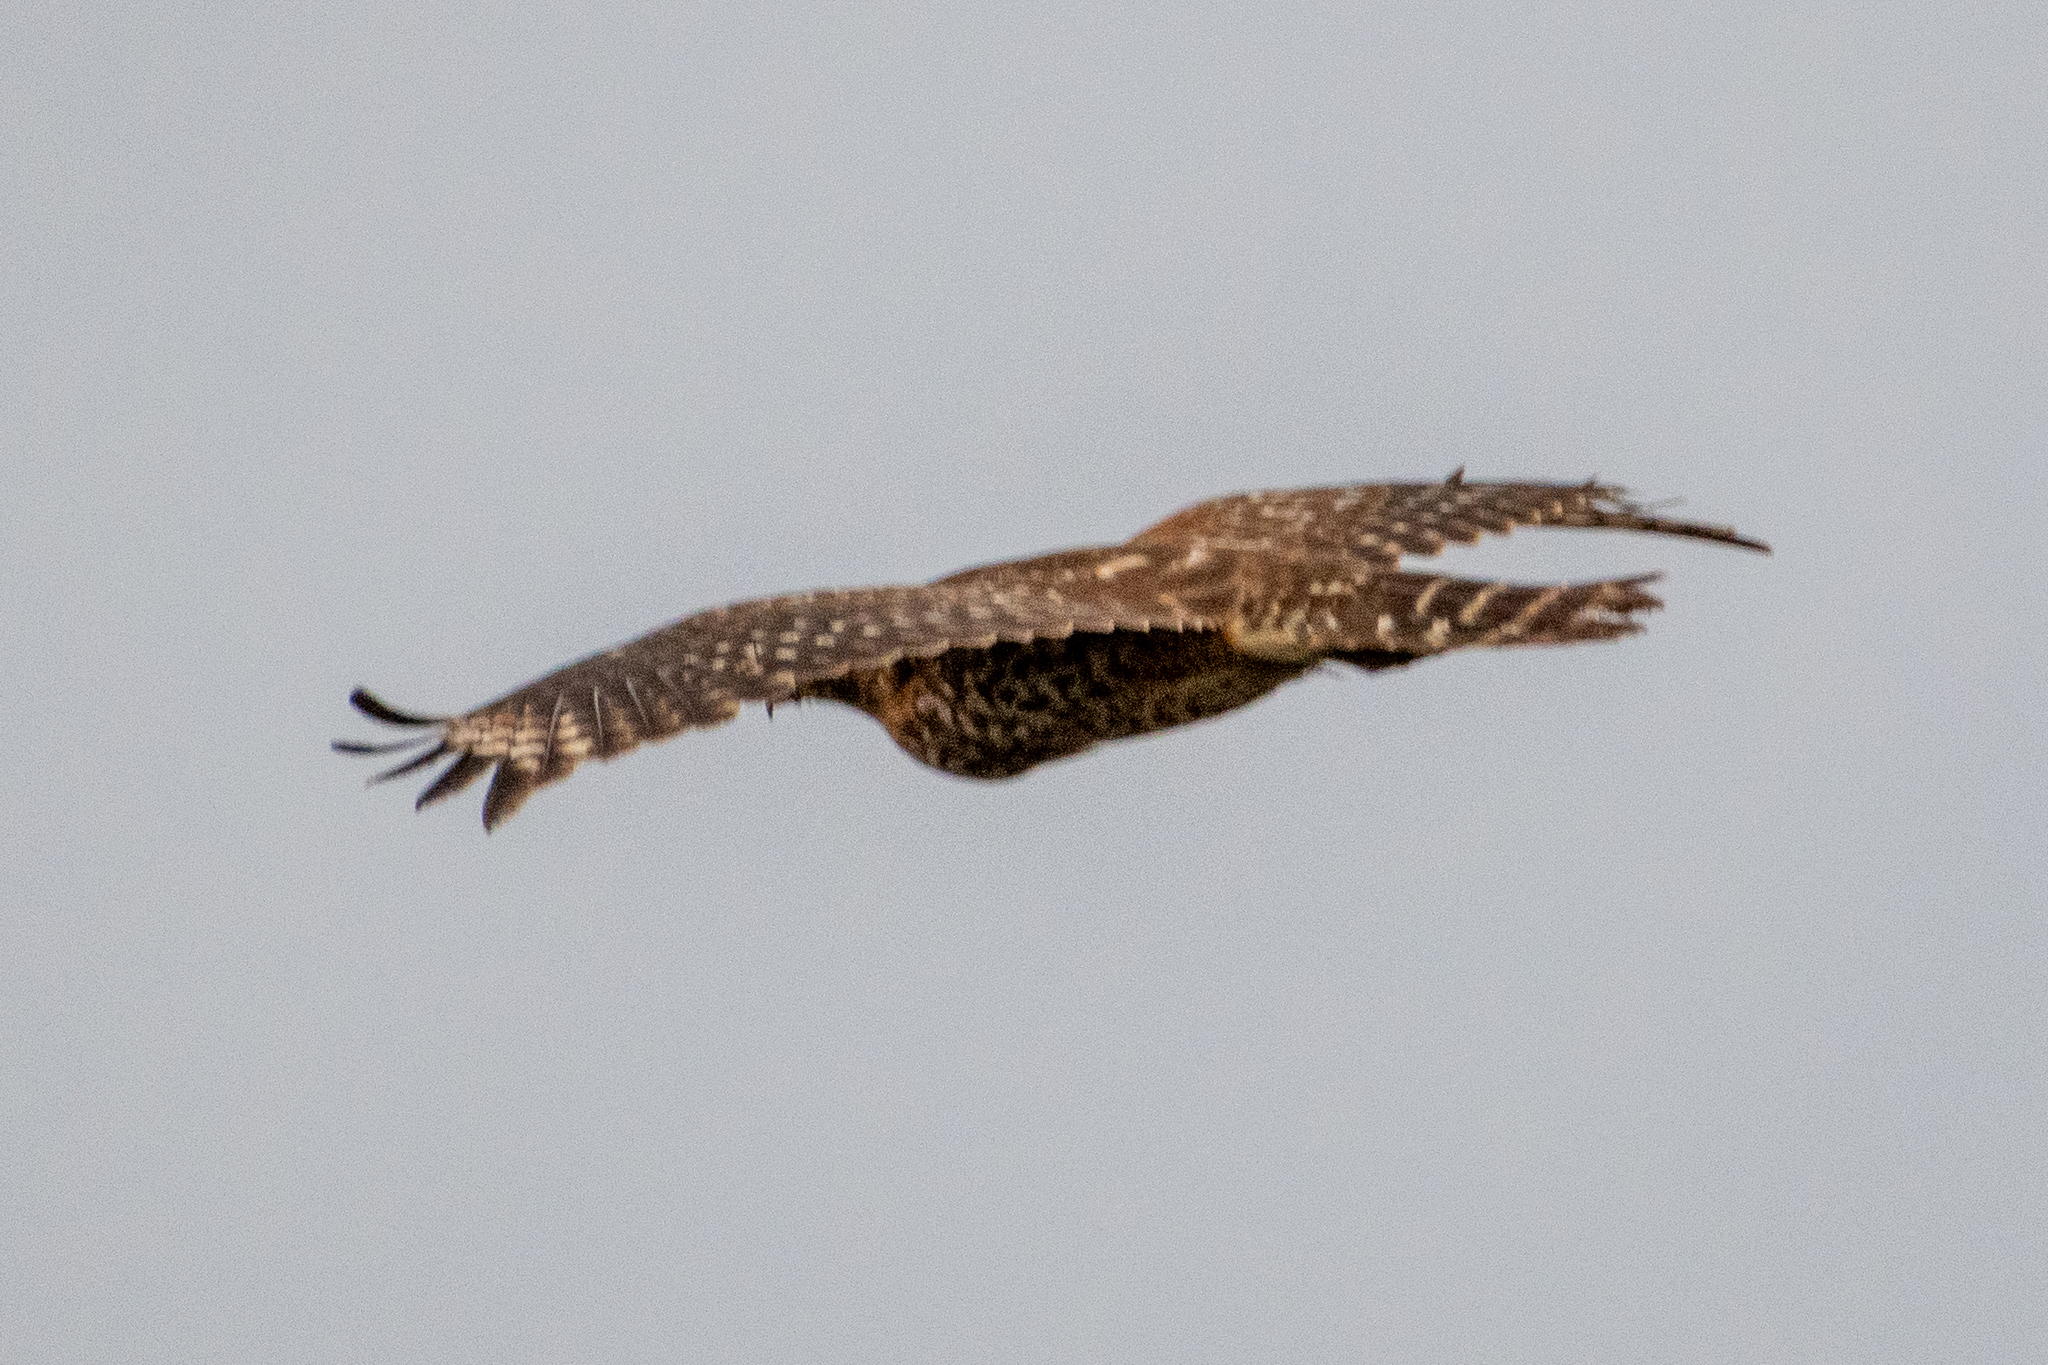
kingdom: Animalia
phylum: Chordata
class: Aves
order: Accipitriformes
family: Accipitridae
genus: Buteo
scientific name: Buteo lineatus
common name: Red-shouldered hawk
